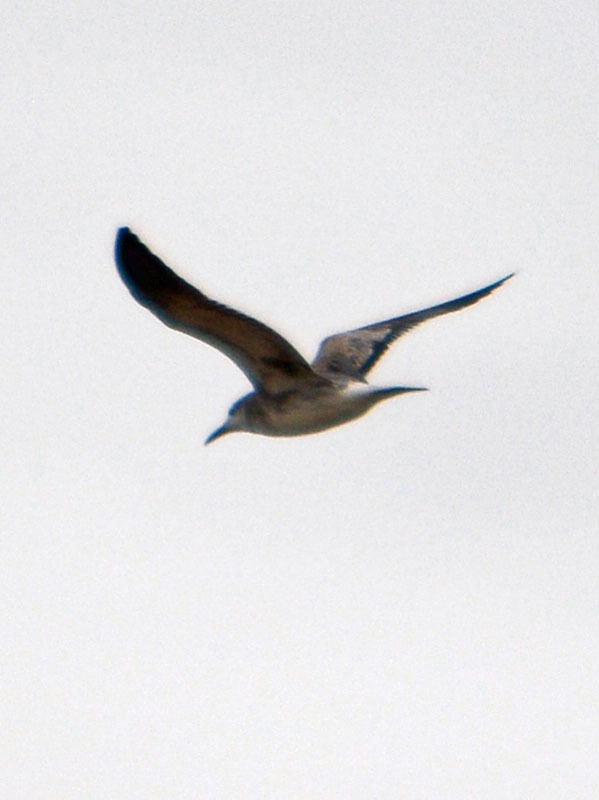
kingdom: Animalia
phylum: Chordata
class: Aves
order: Charadriiformes
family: Laridae
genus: Leucophaeus
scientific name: Leucophaeus atricilla
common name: Laughing gull
